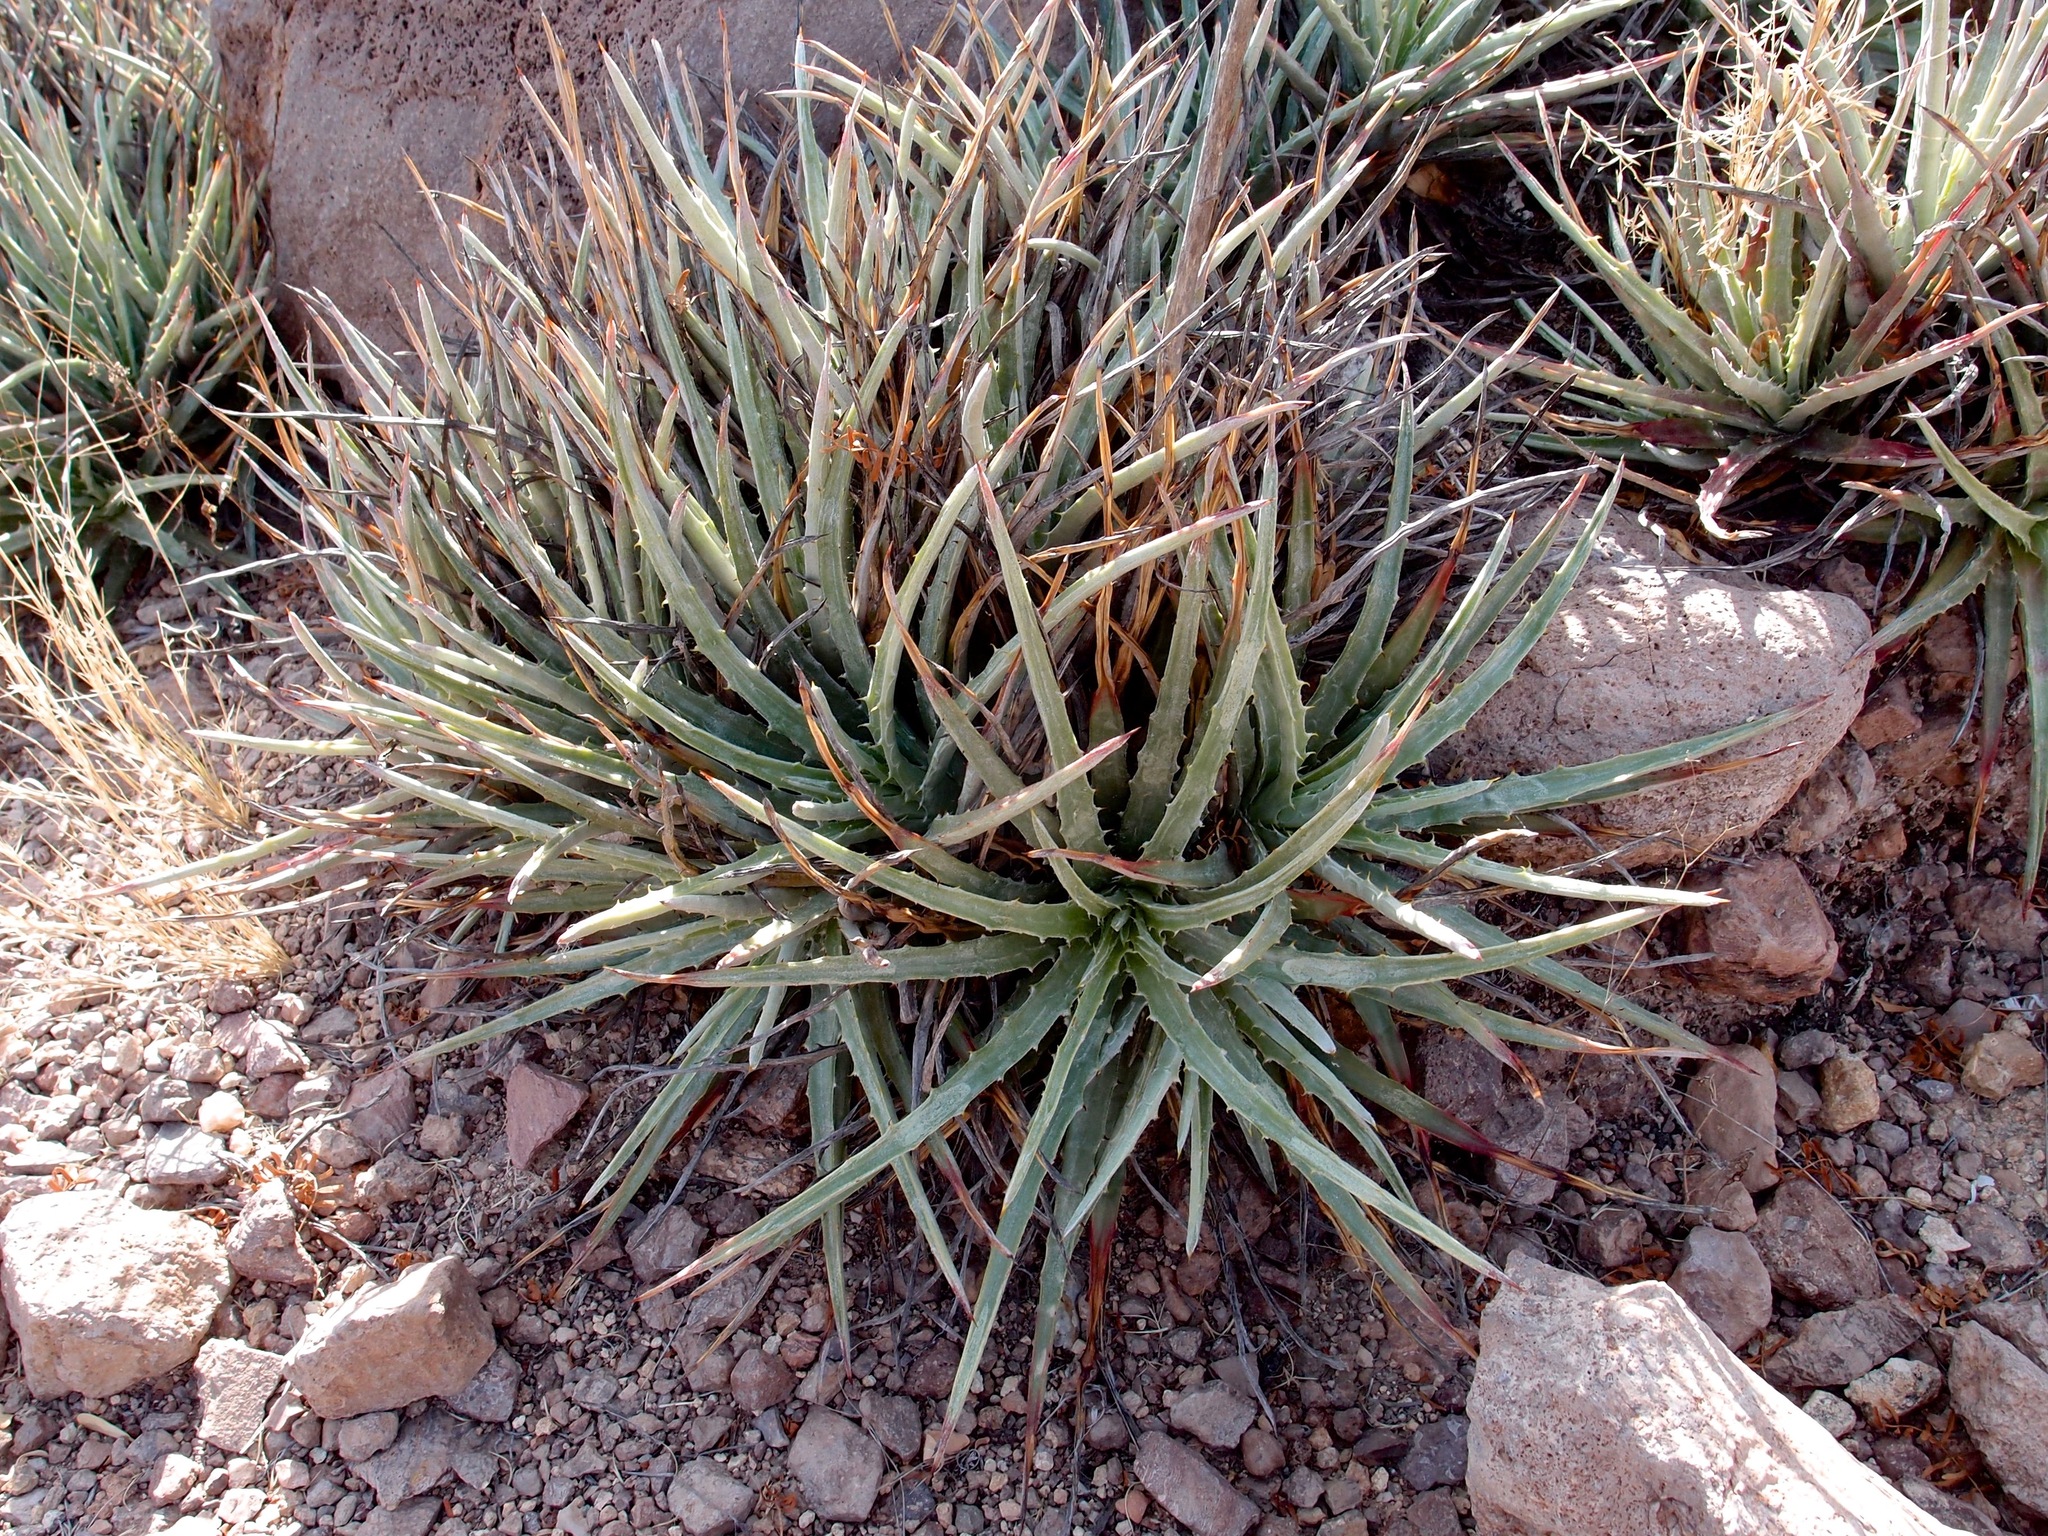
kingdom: Plantae
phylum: Tracheophyta
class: Liliopsida
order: Poales
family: Bromeliaceae
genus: Hechtia
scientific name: Hechtia montana
